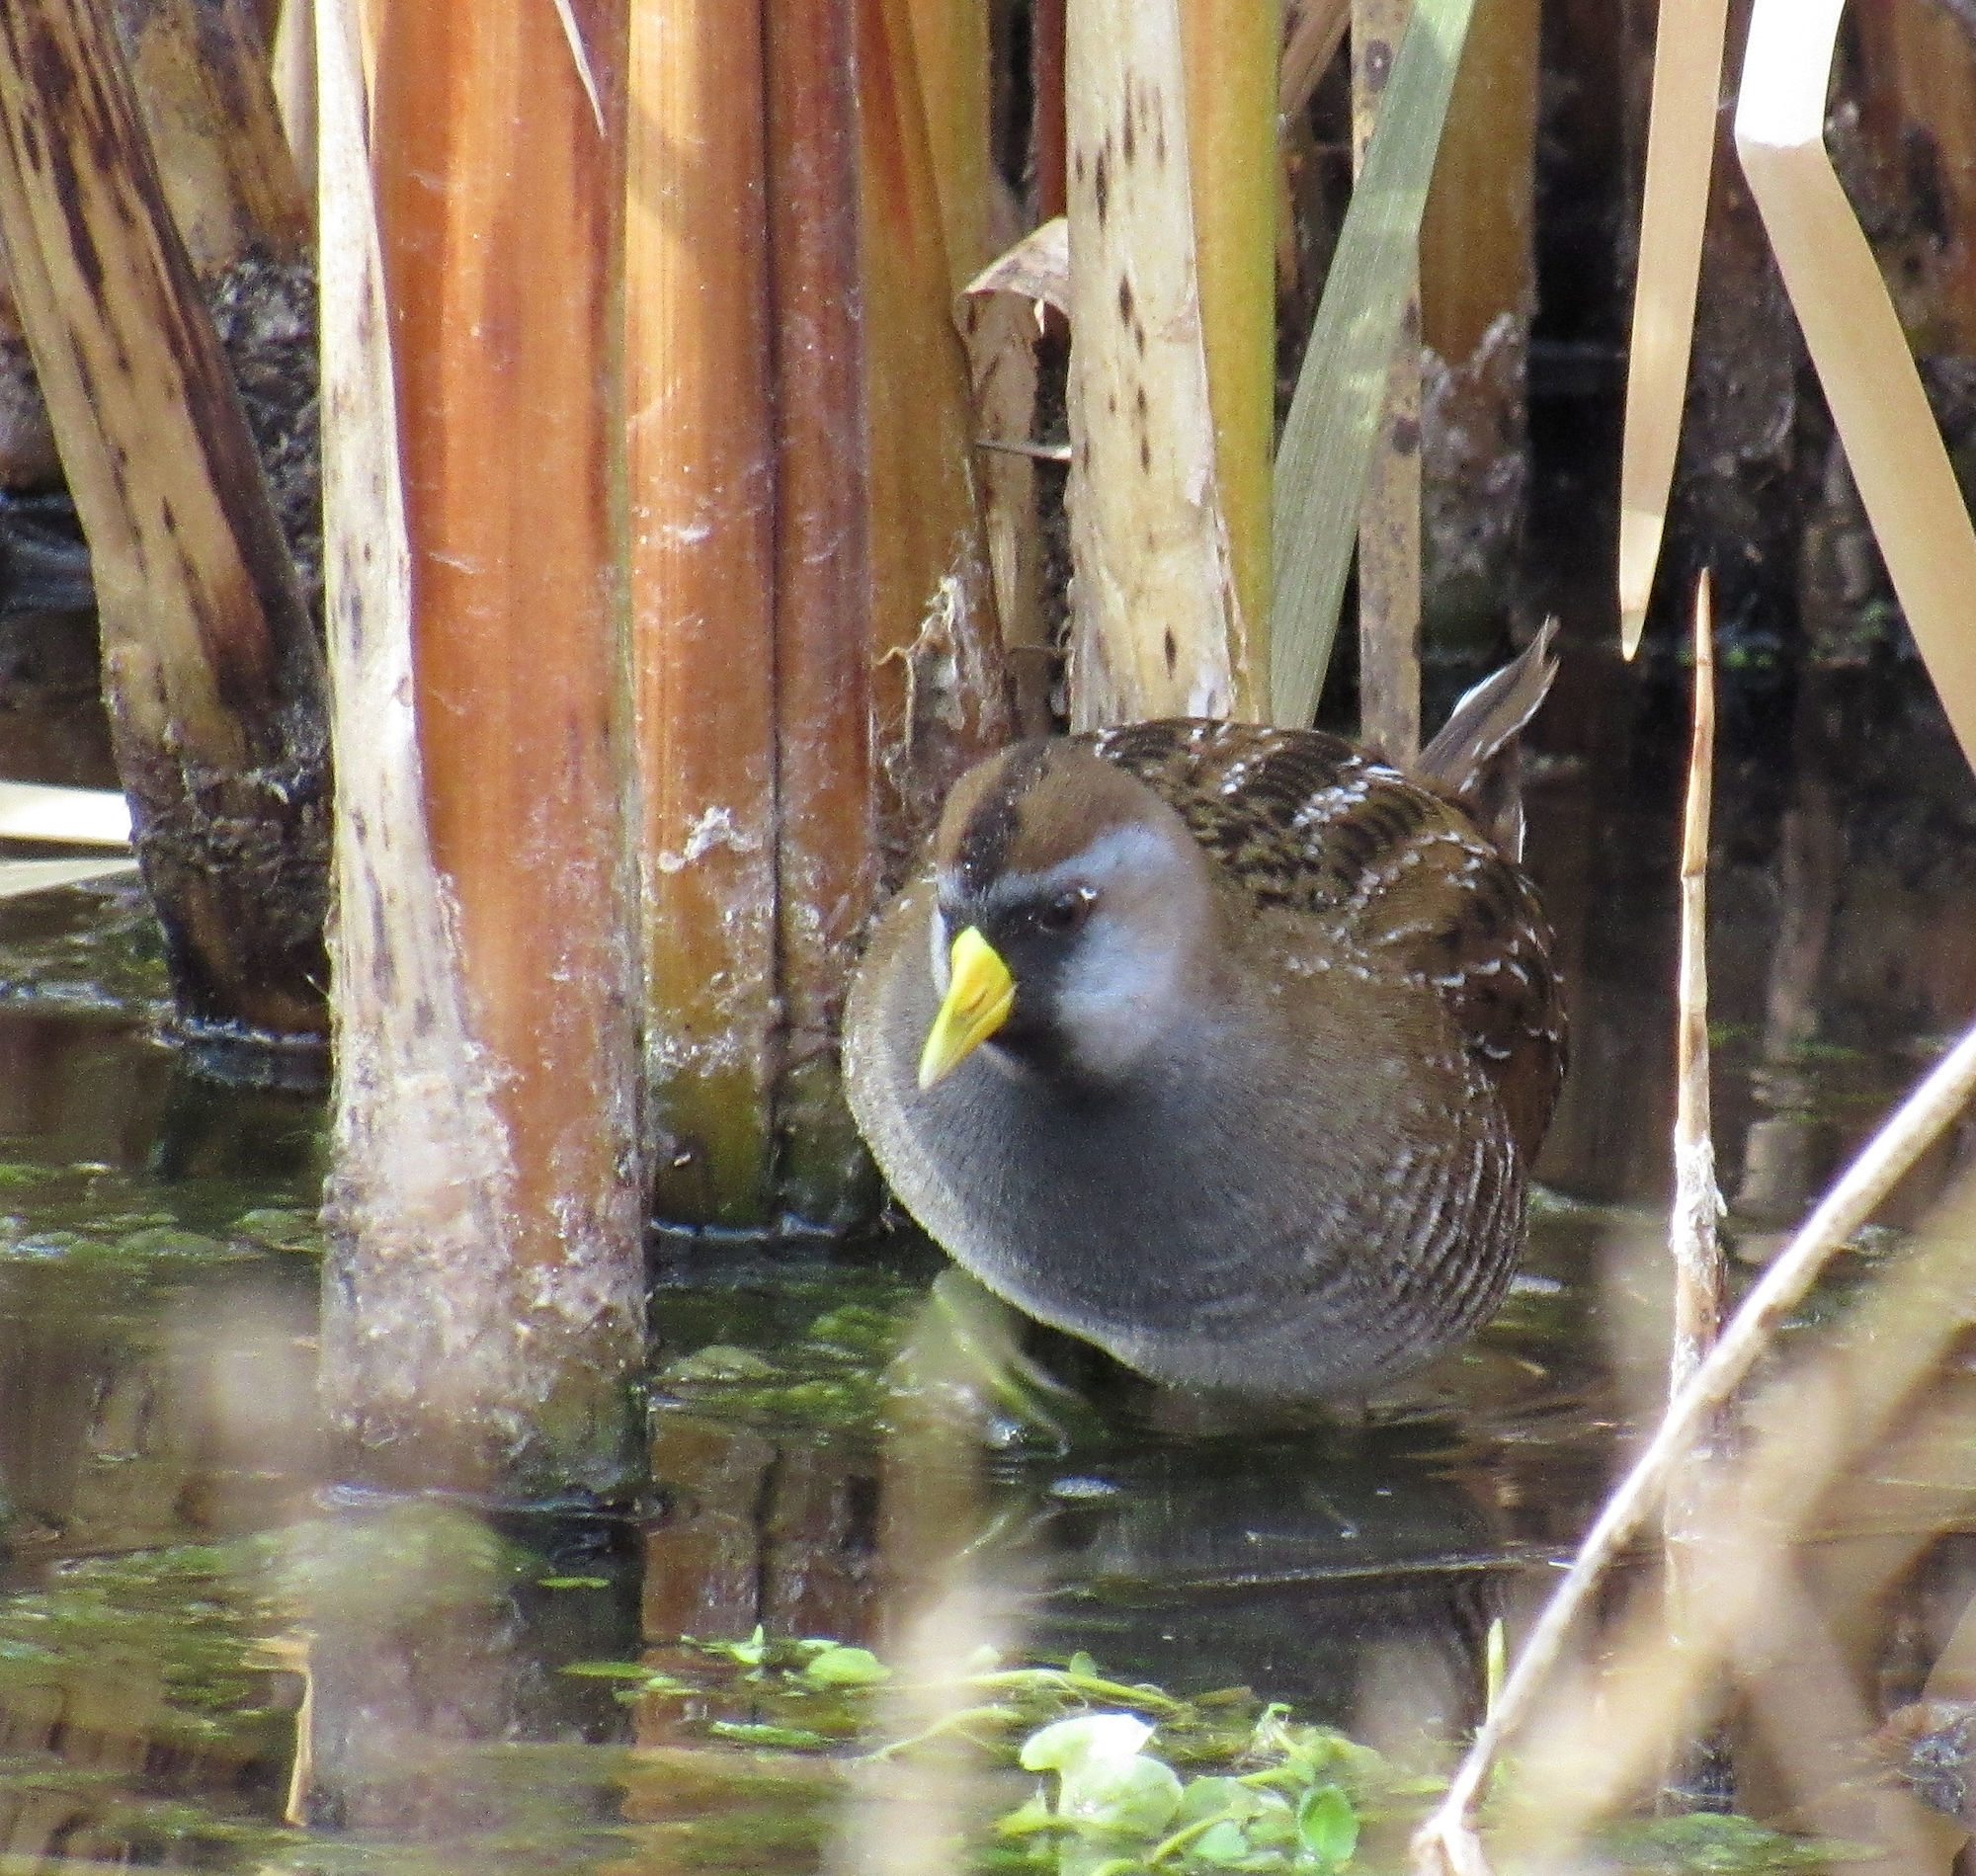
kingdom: Animalia
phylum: Chordata
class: Aves
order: Gruiformes
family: Rallidae
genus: Porzana
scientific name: Porzana carolina
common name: Sora
